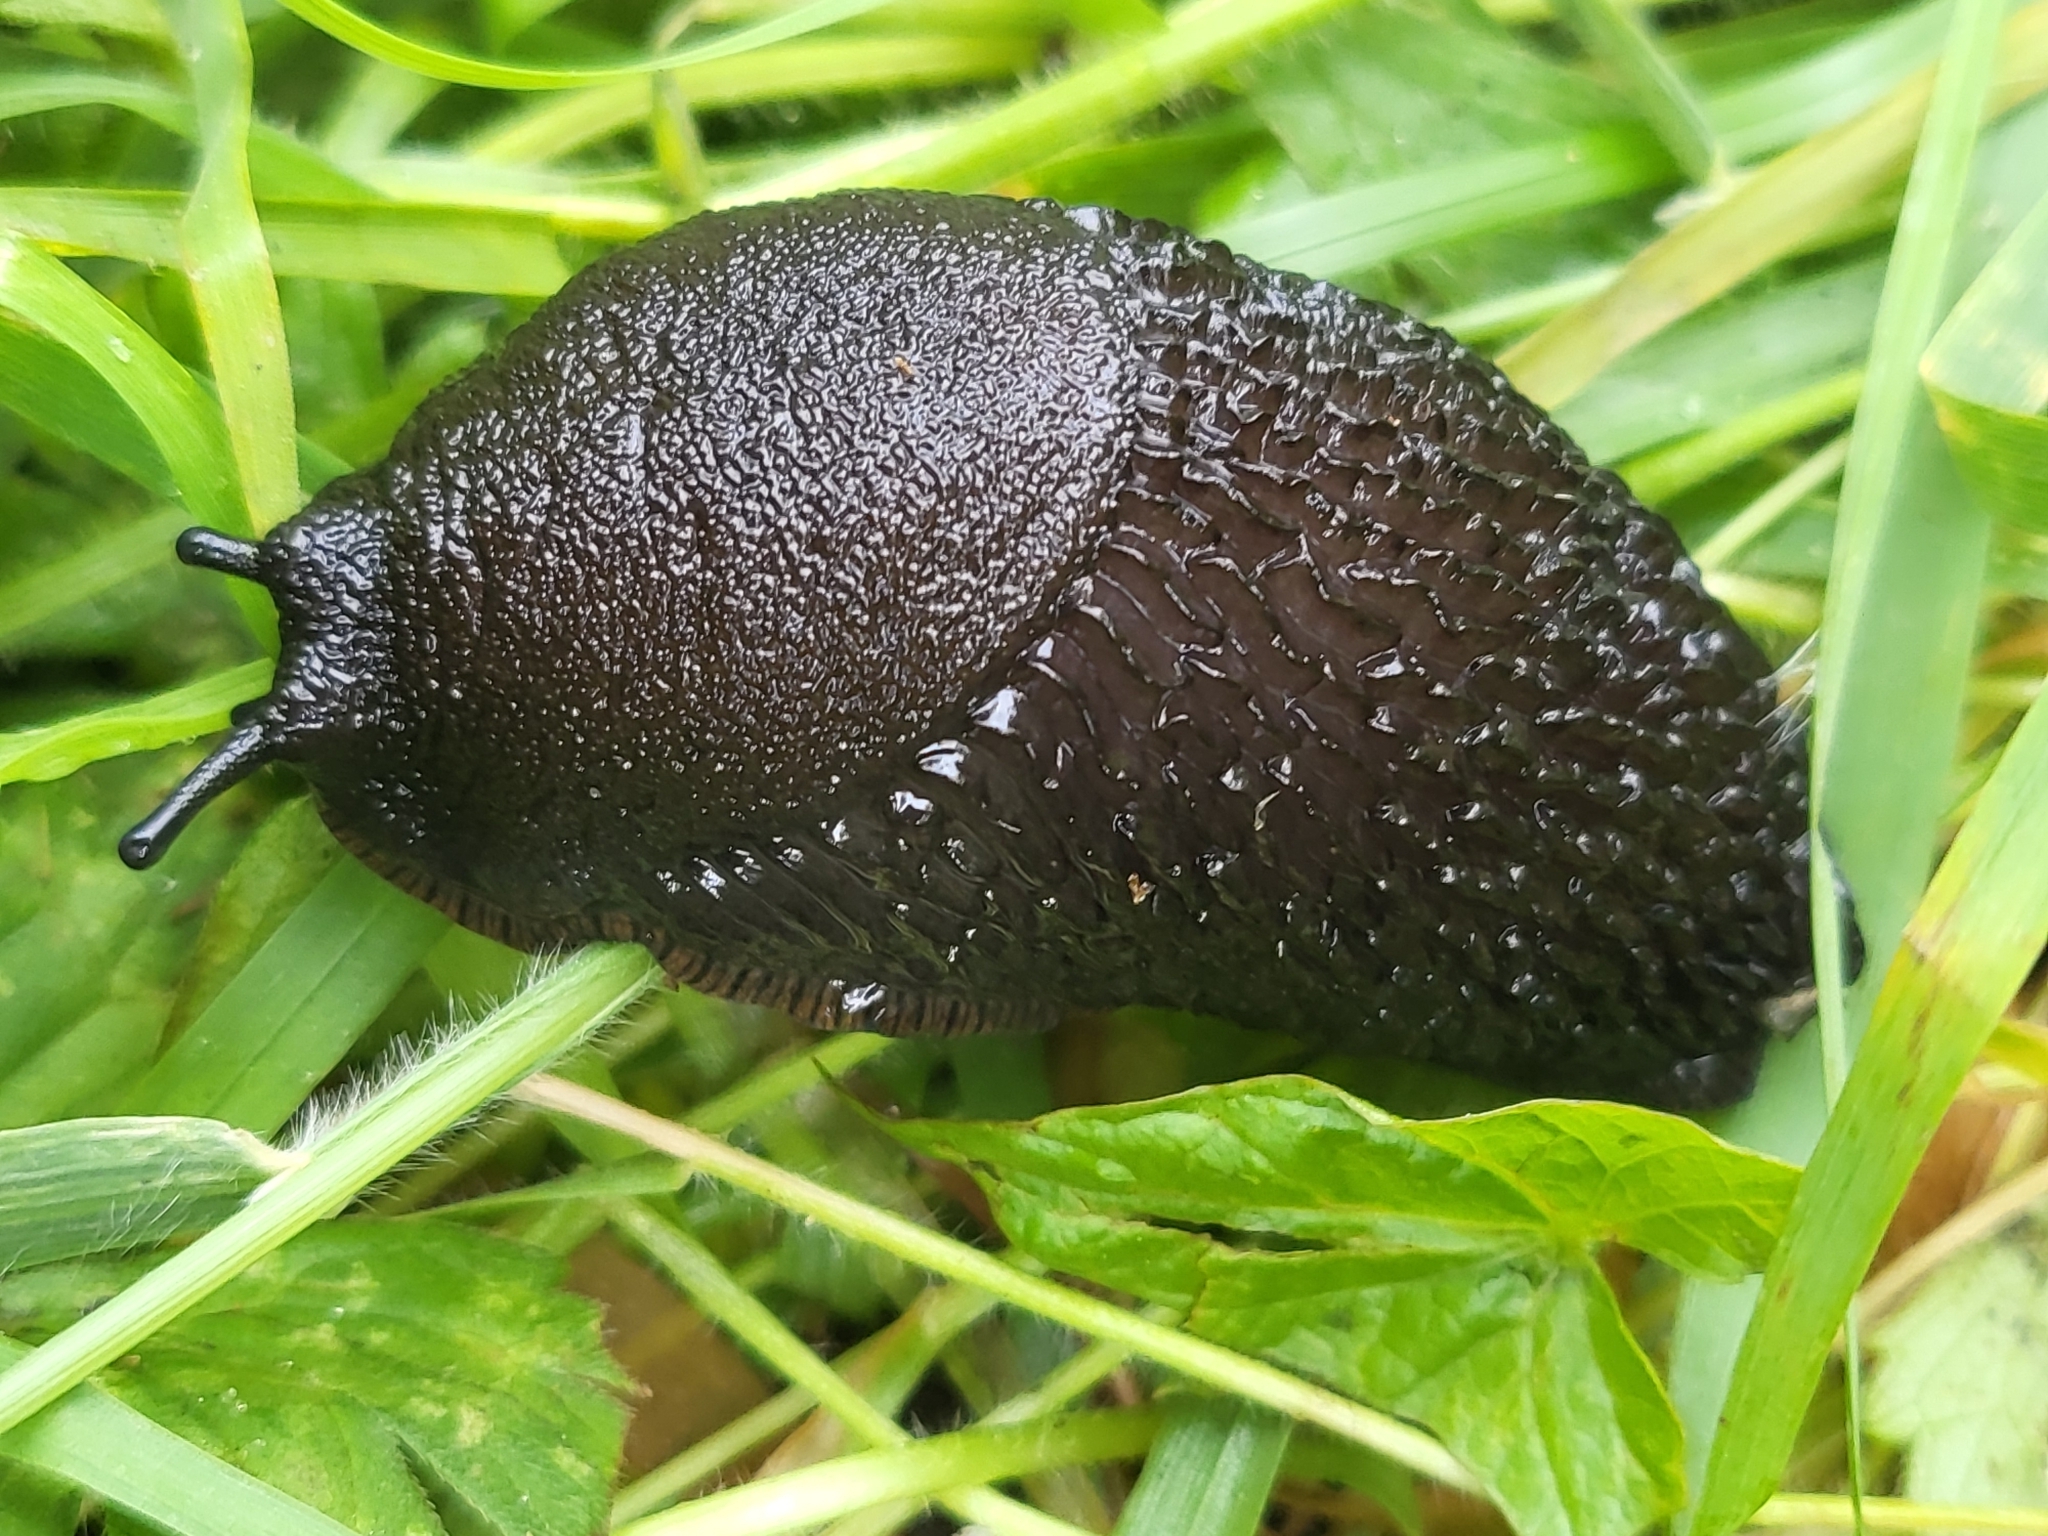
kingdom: Animalia
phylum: Mollusca
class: Gastropoda
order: Stylommatophora
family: Arionidae
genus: Arion
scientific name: Arion ater
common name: Black arion
